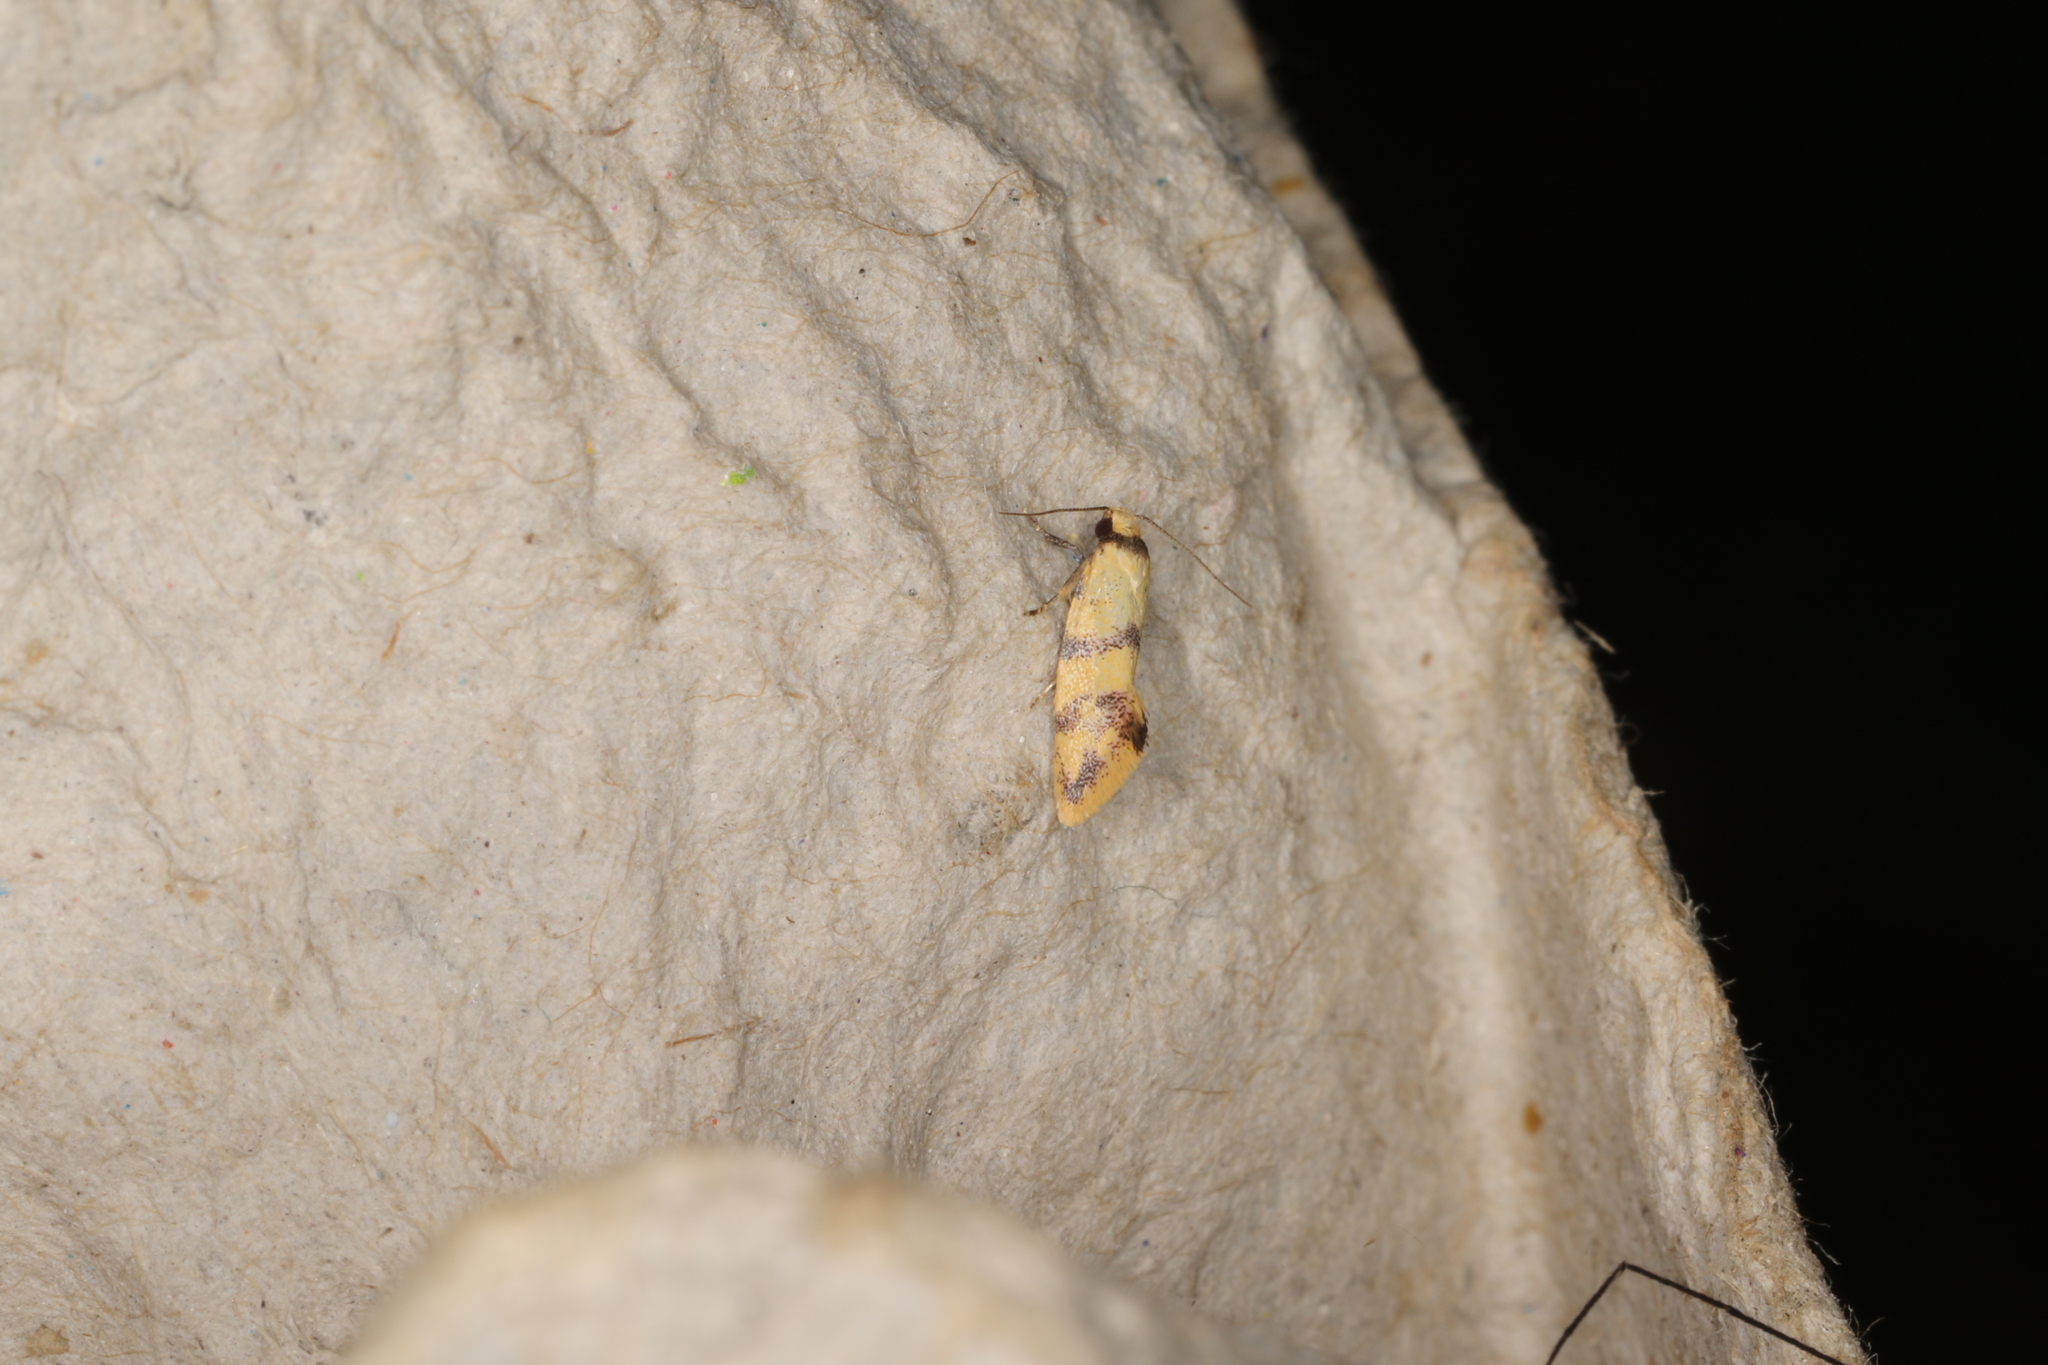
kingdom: Animalia
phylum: Arthropoda
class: Insecta
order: Lepidoptera
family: Oecophoridae
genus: Psaroxantha
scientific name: Psaroxantha basilica
